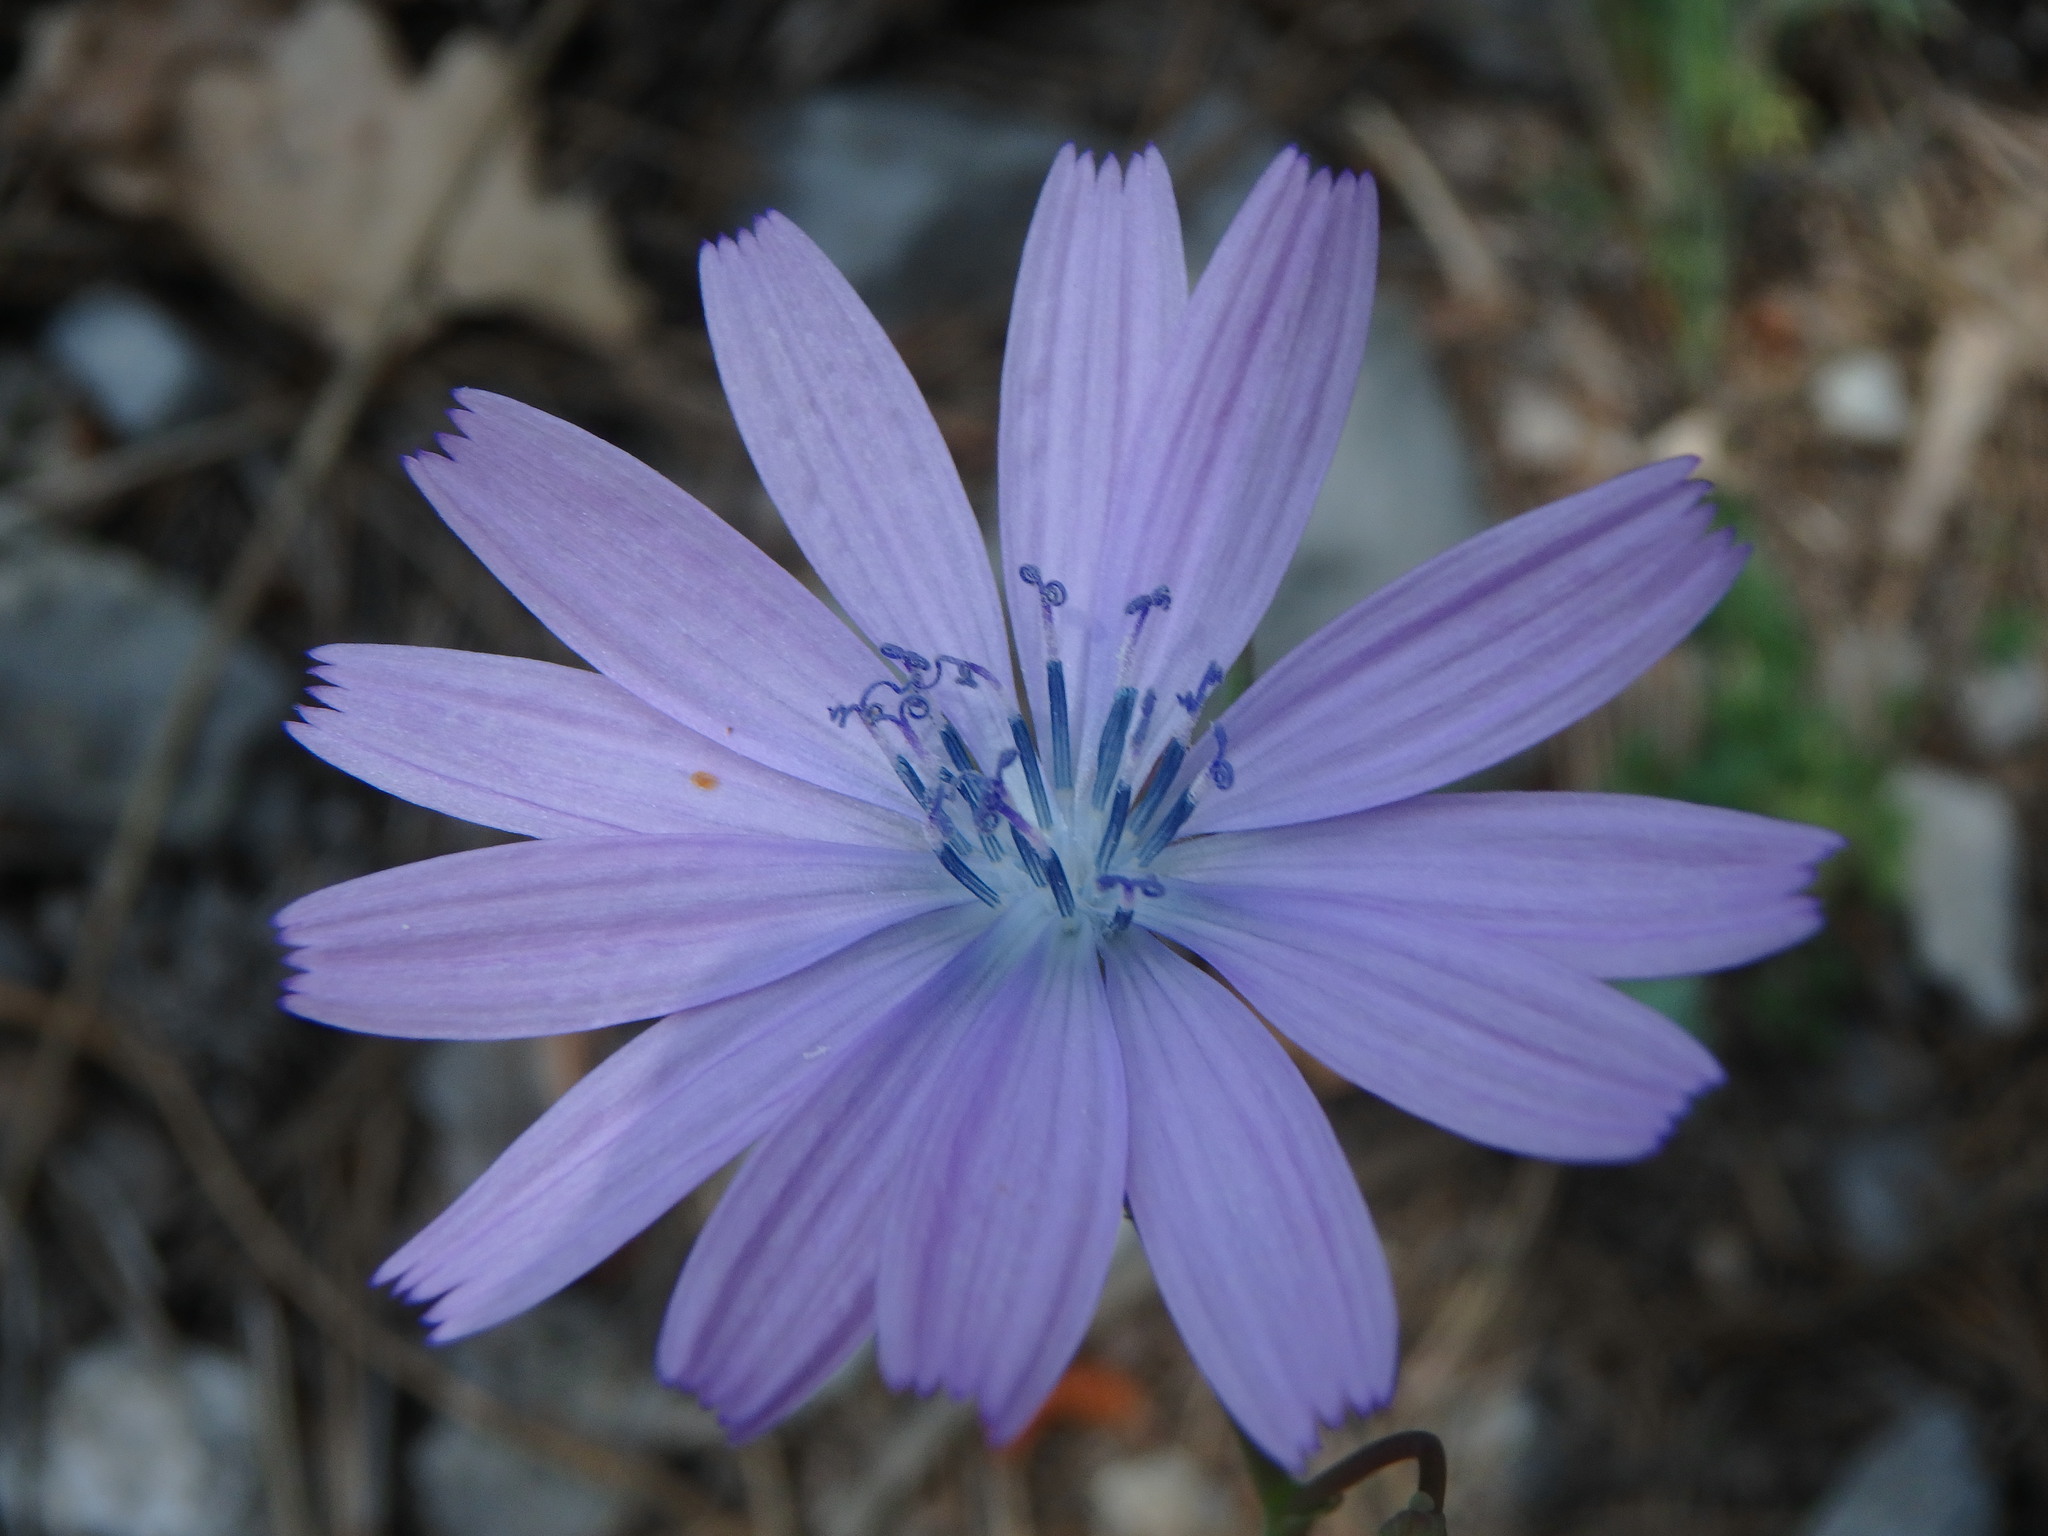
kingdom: Plantae
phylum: Tracheophyta
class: Magnoliopsida
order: Asterales
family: Asteraceae
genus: Lactuca
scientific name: Lactuca perennis
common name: Mountain lettuce
